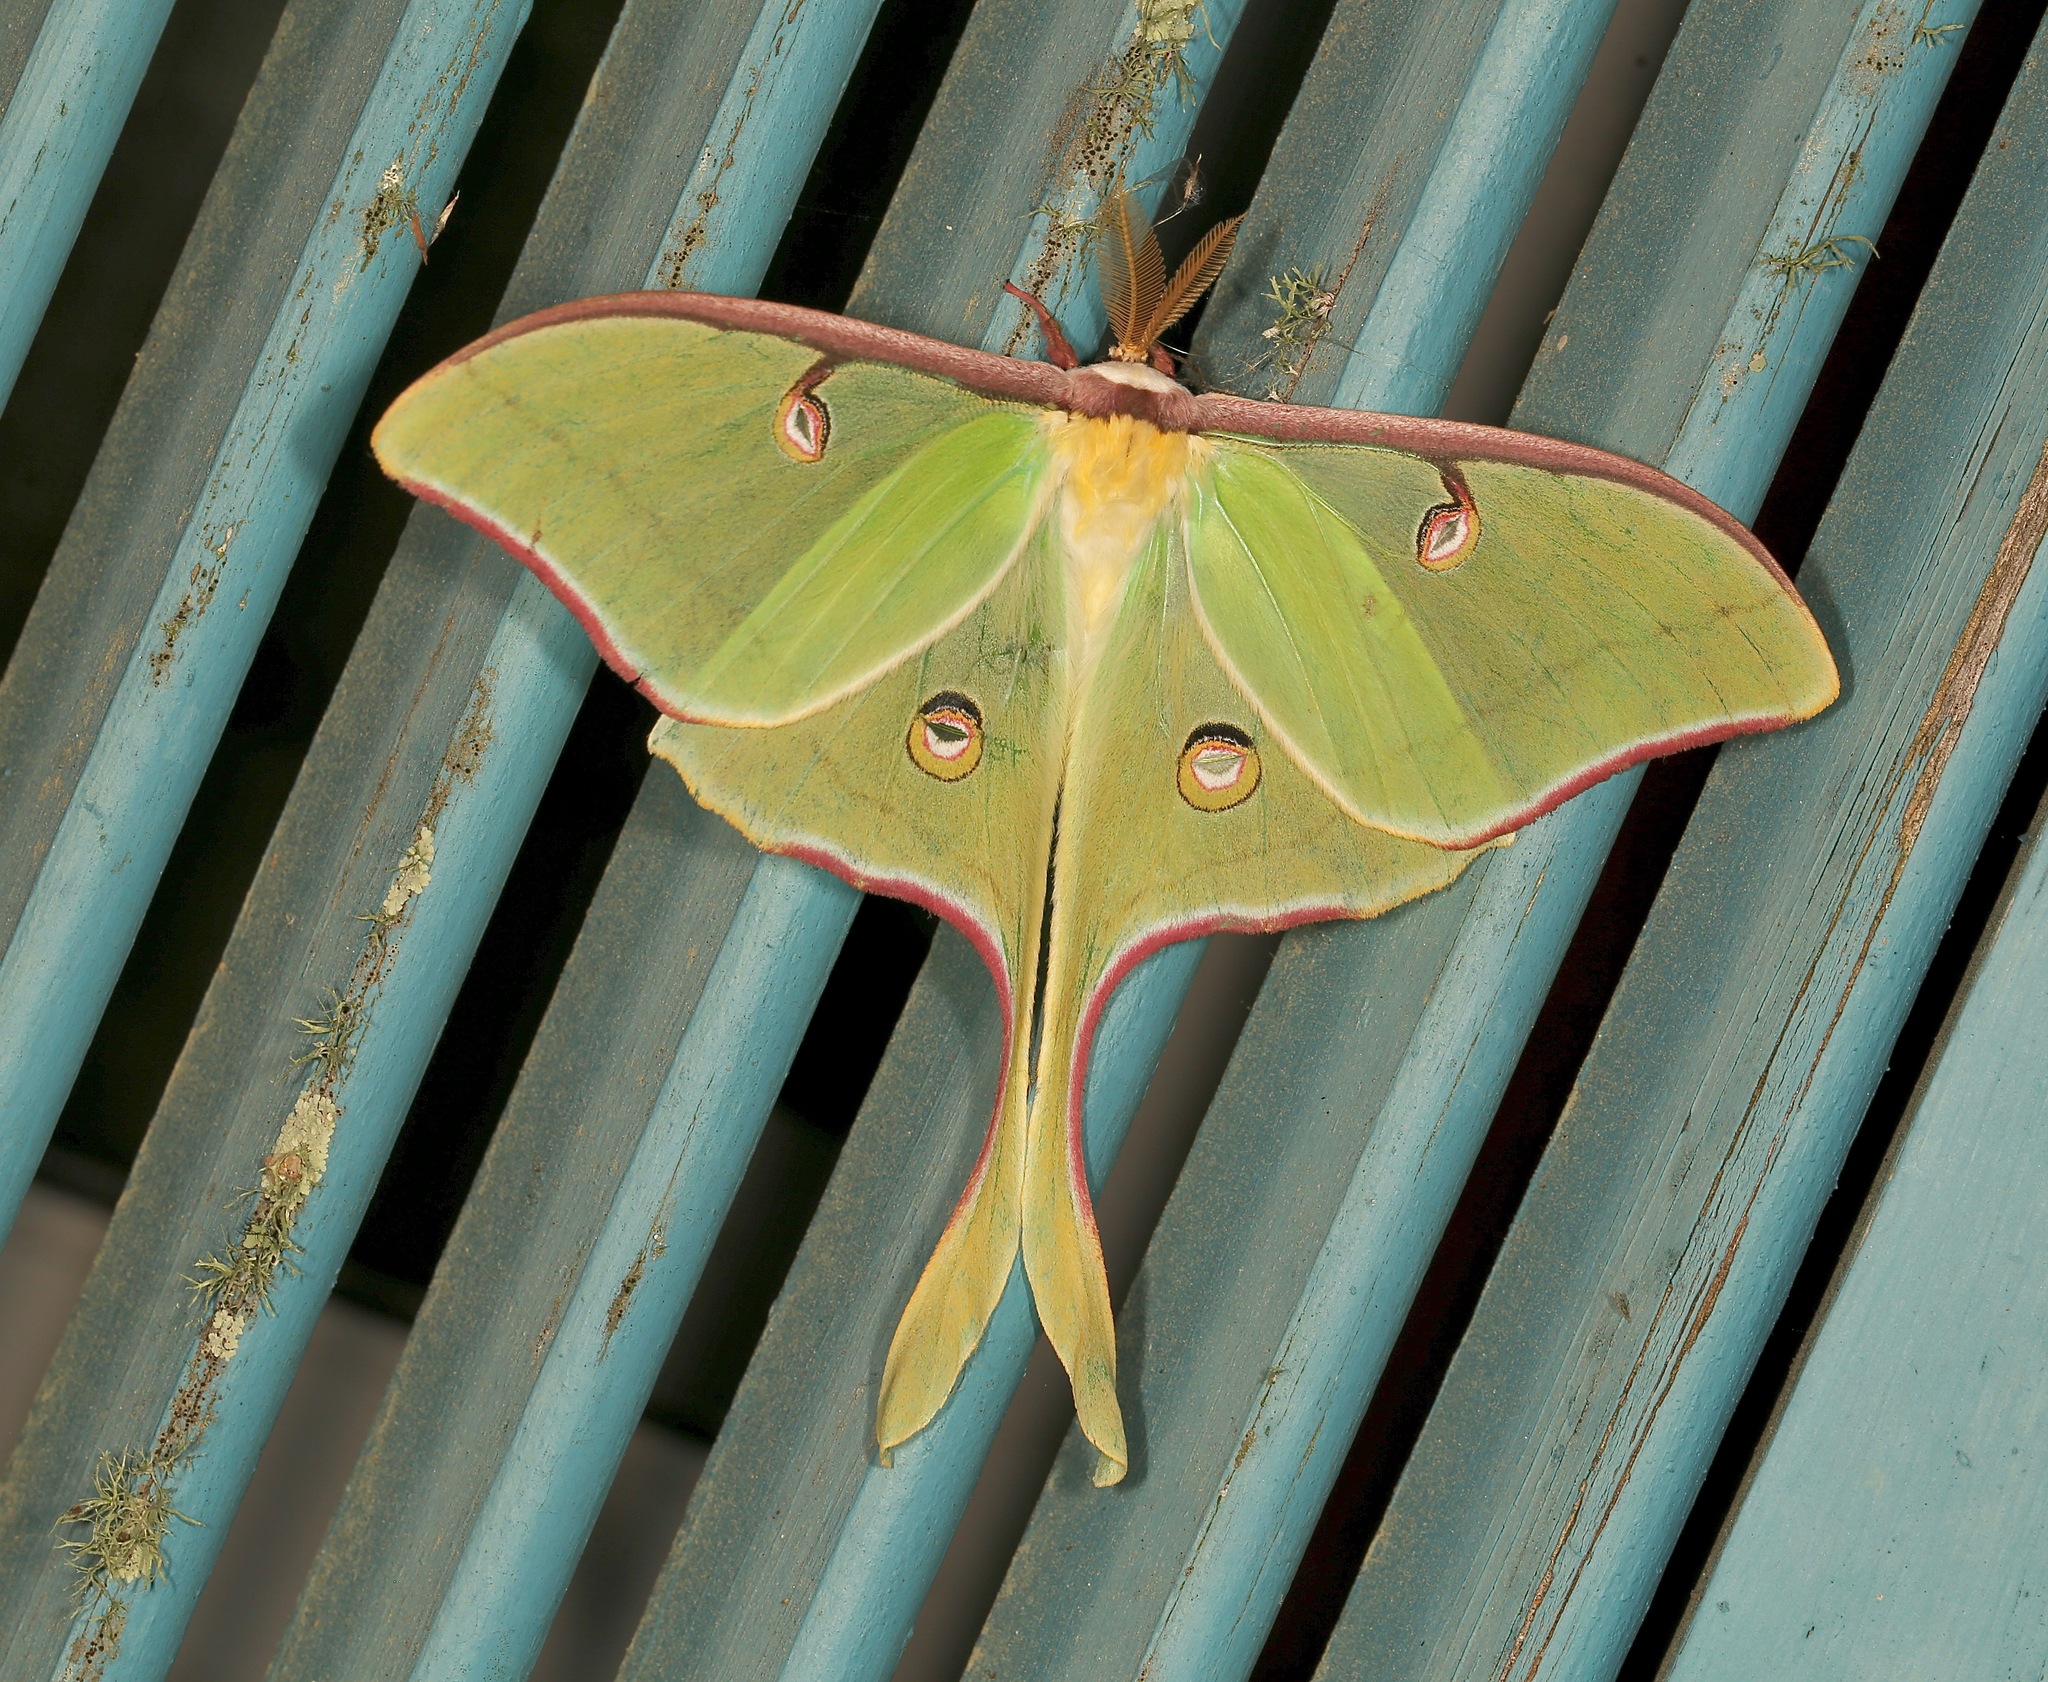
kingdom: Animalia
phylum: Arthropoda
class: Insecta
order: Lepidoptera
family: Saturniidae
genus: Actias
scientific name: Actias luna
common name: Luna moth
